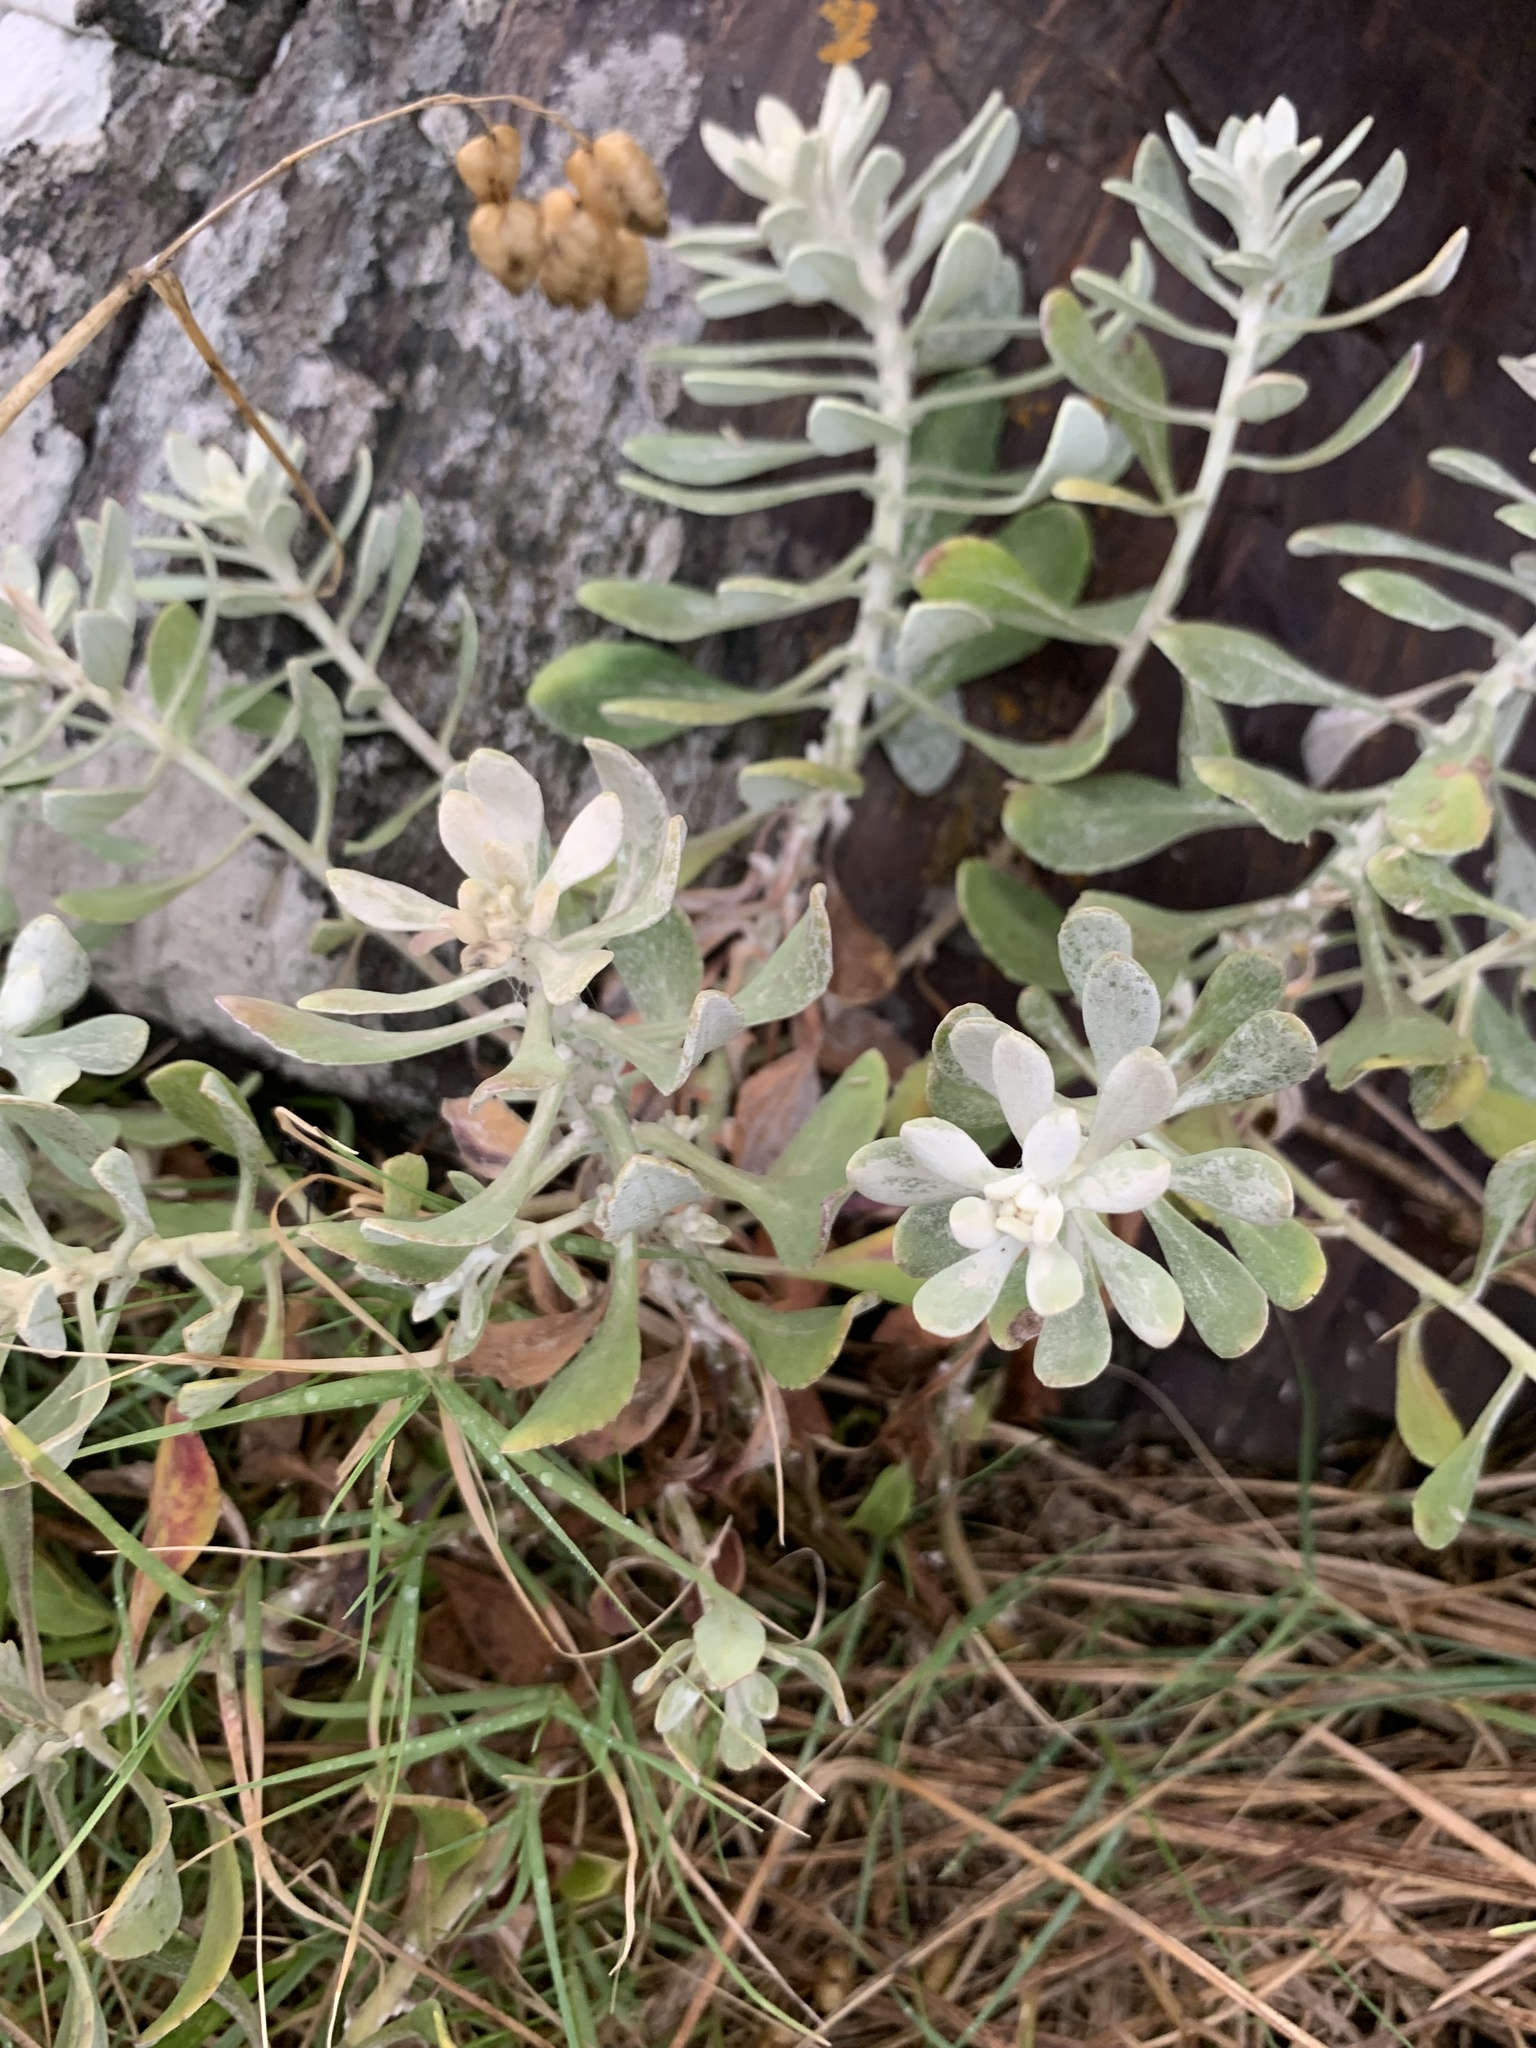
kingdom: Plantae
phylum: Tracheophyta
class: Magnoliopsida
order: Asterales
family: Asteraceae
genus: Senecio
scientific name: Senecio ostenii
